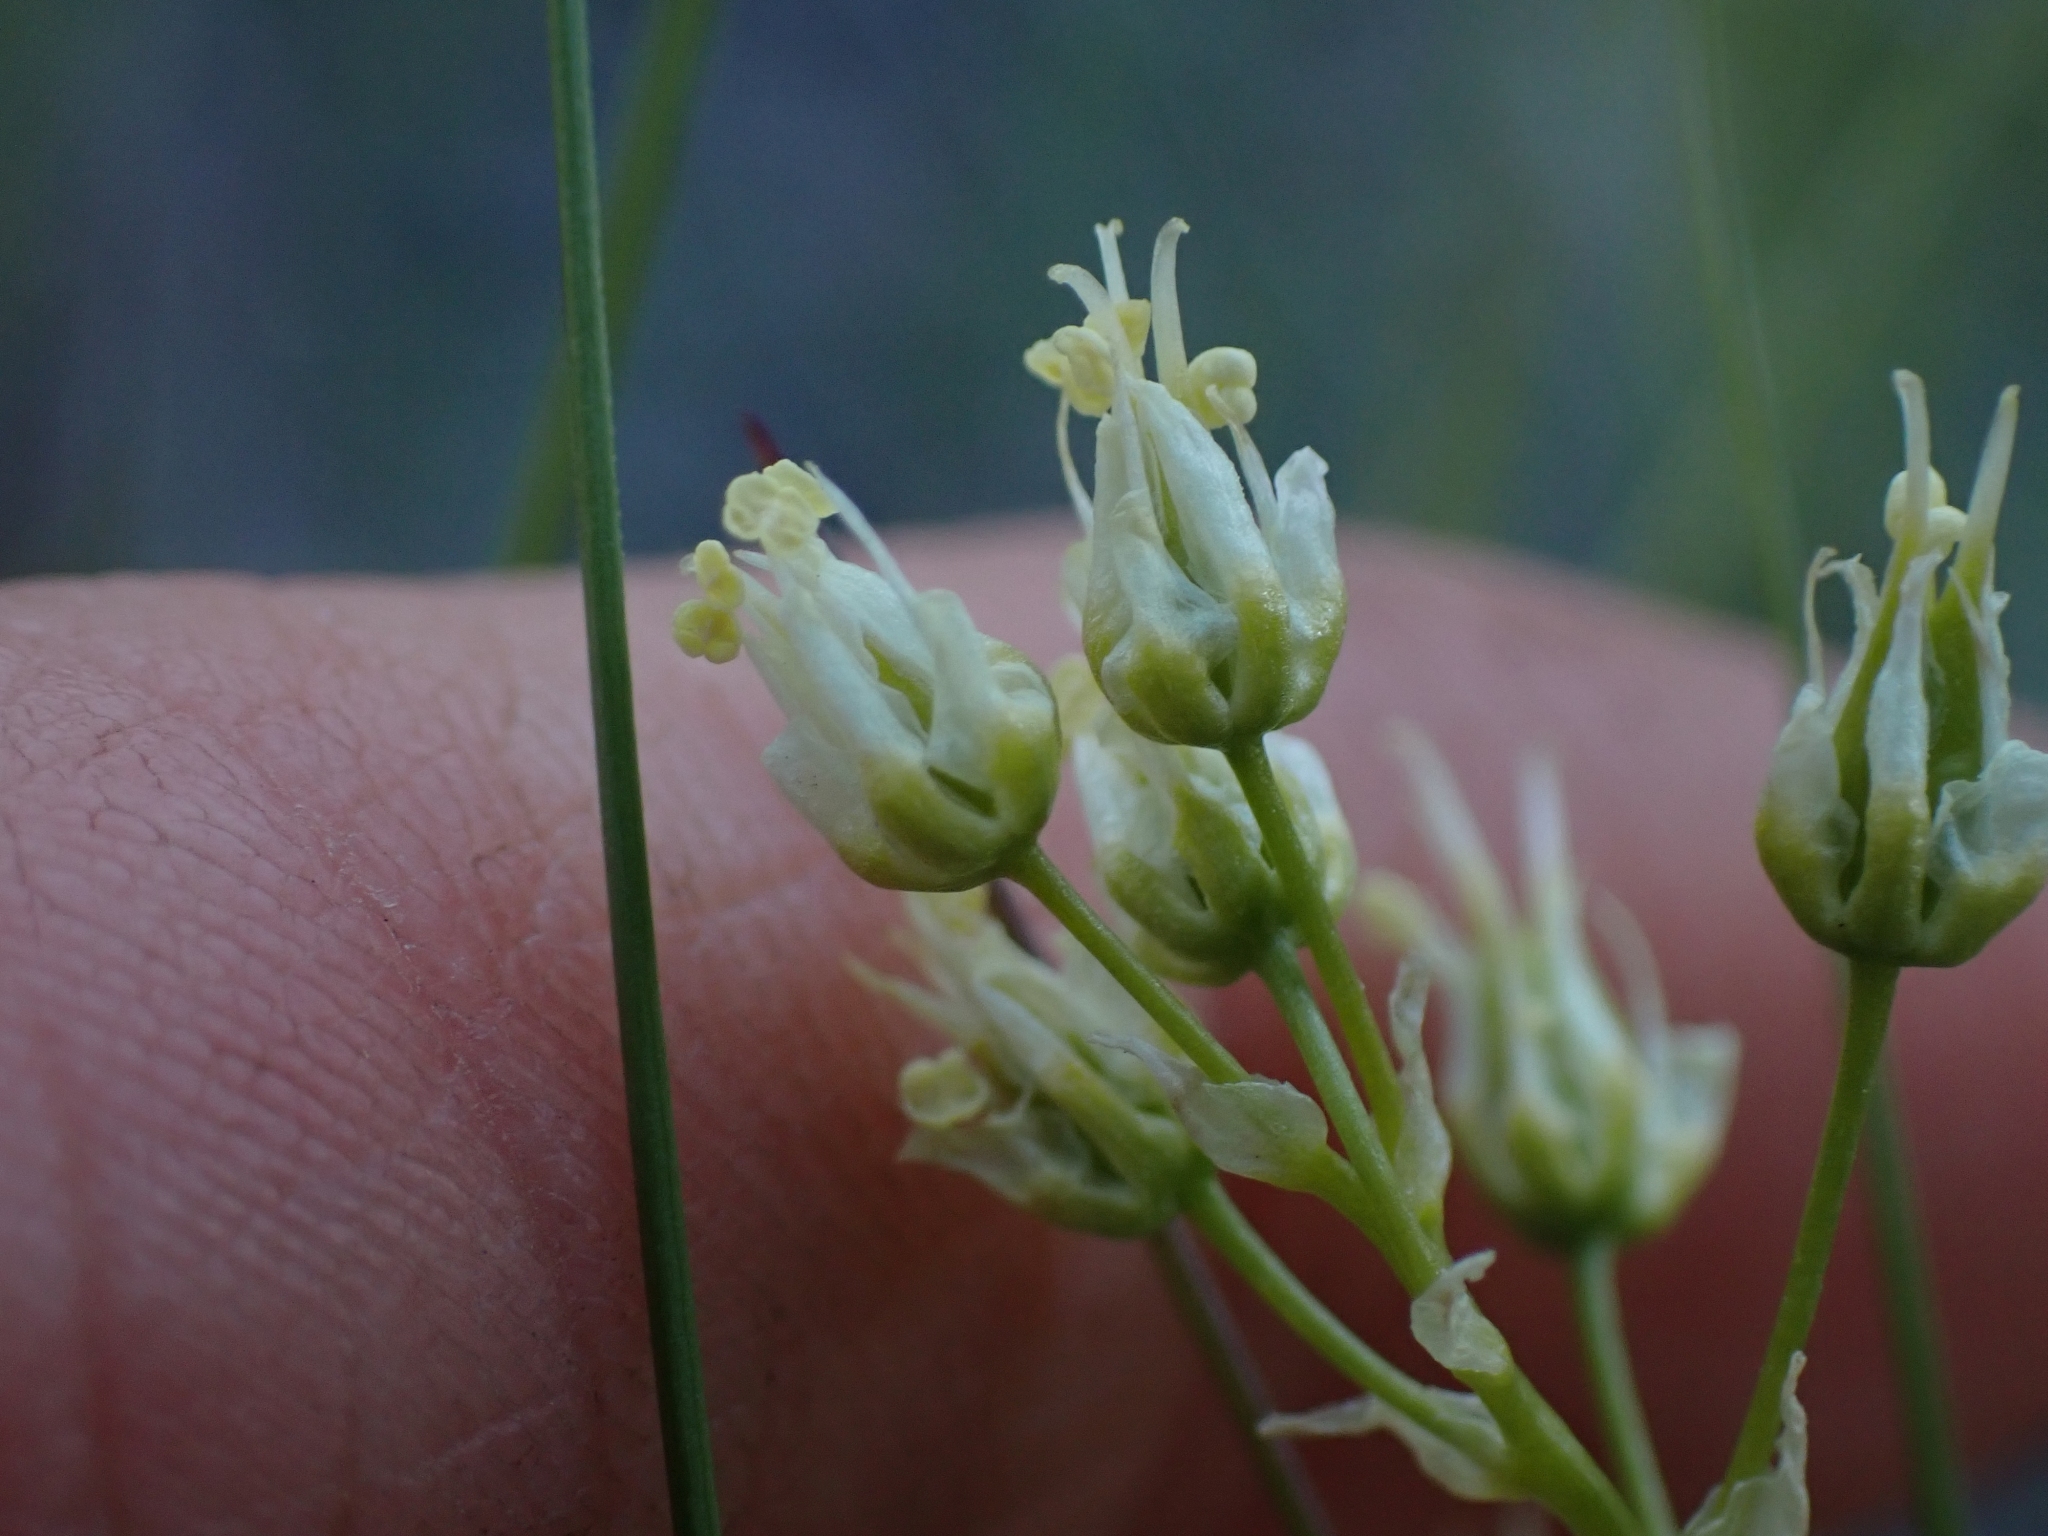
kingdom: Plantae
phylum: Tracheophyta
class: Liliopsida
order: Liliales
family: Melanthiaceae
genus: Toxicoscordion
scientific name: Toxicoscordion venenosum
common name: Meadow death camas
